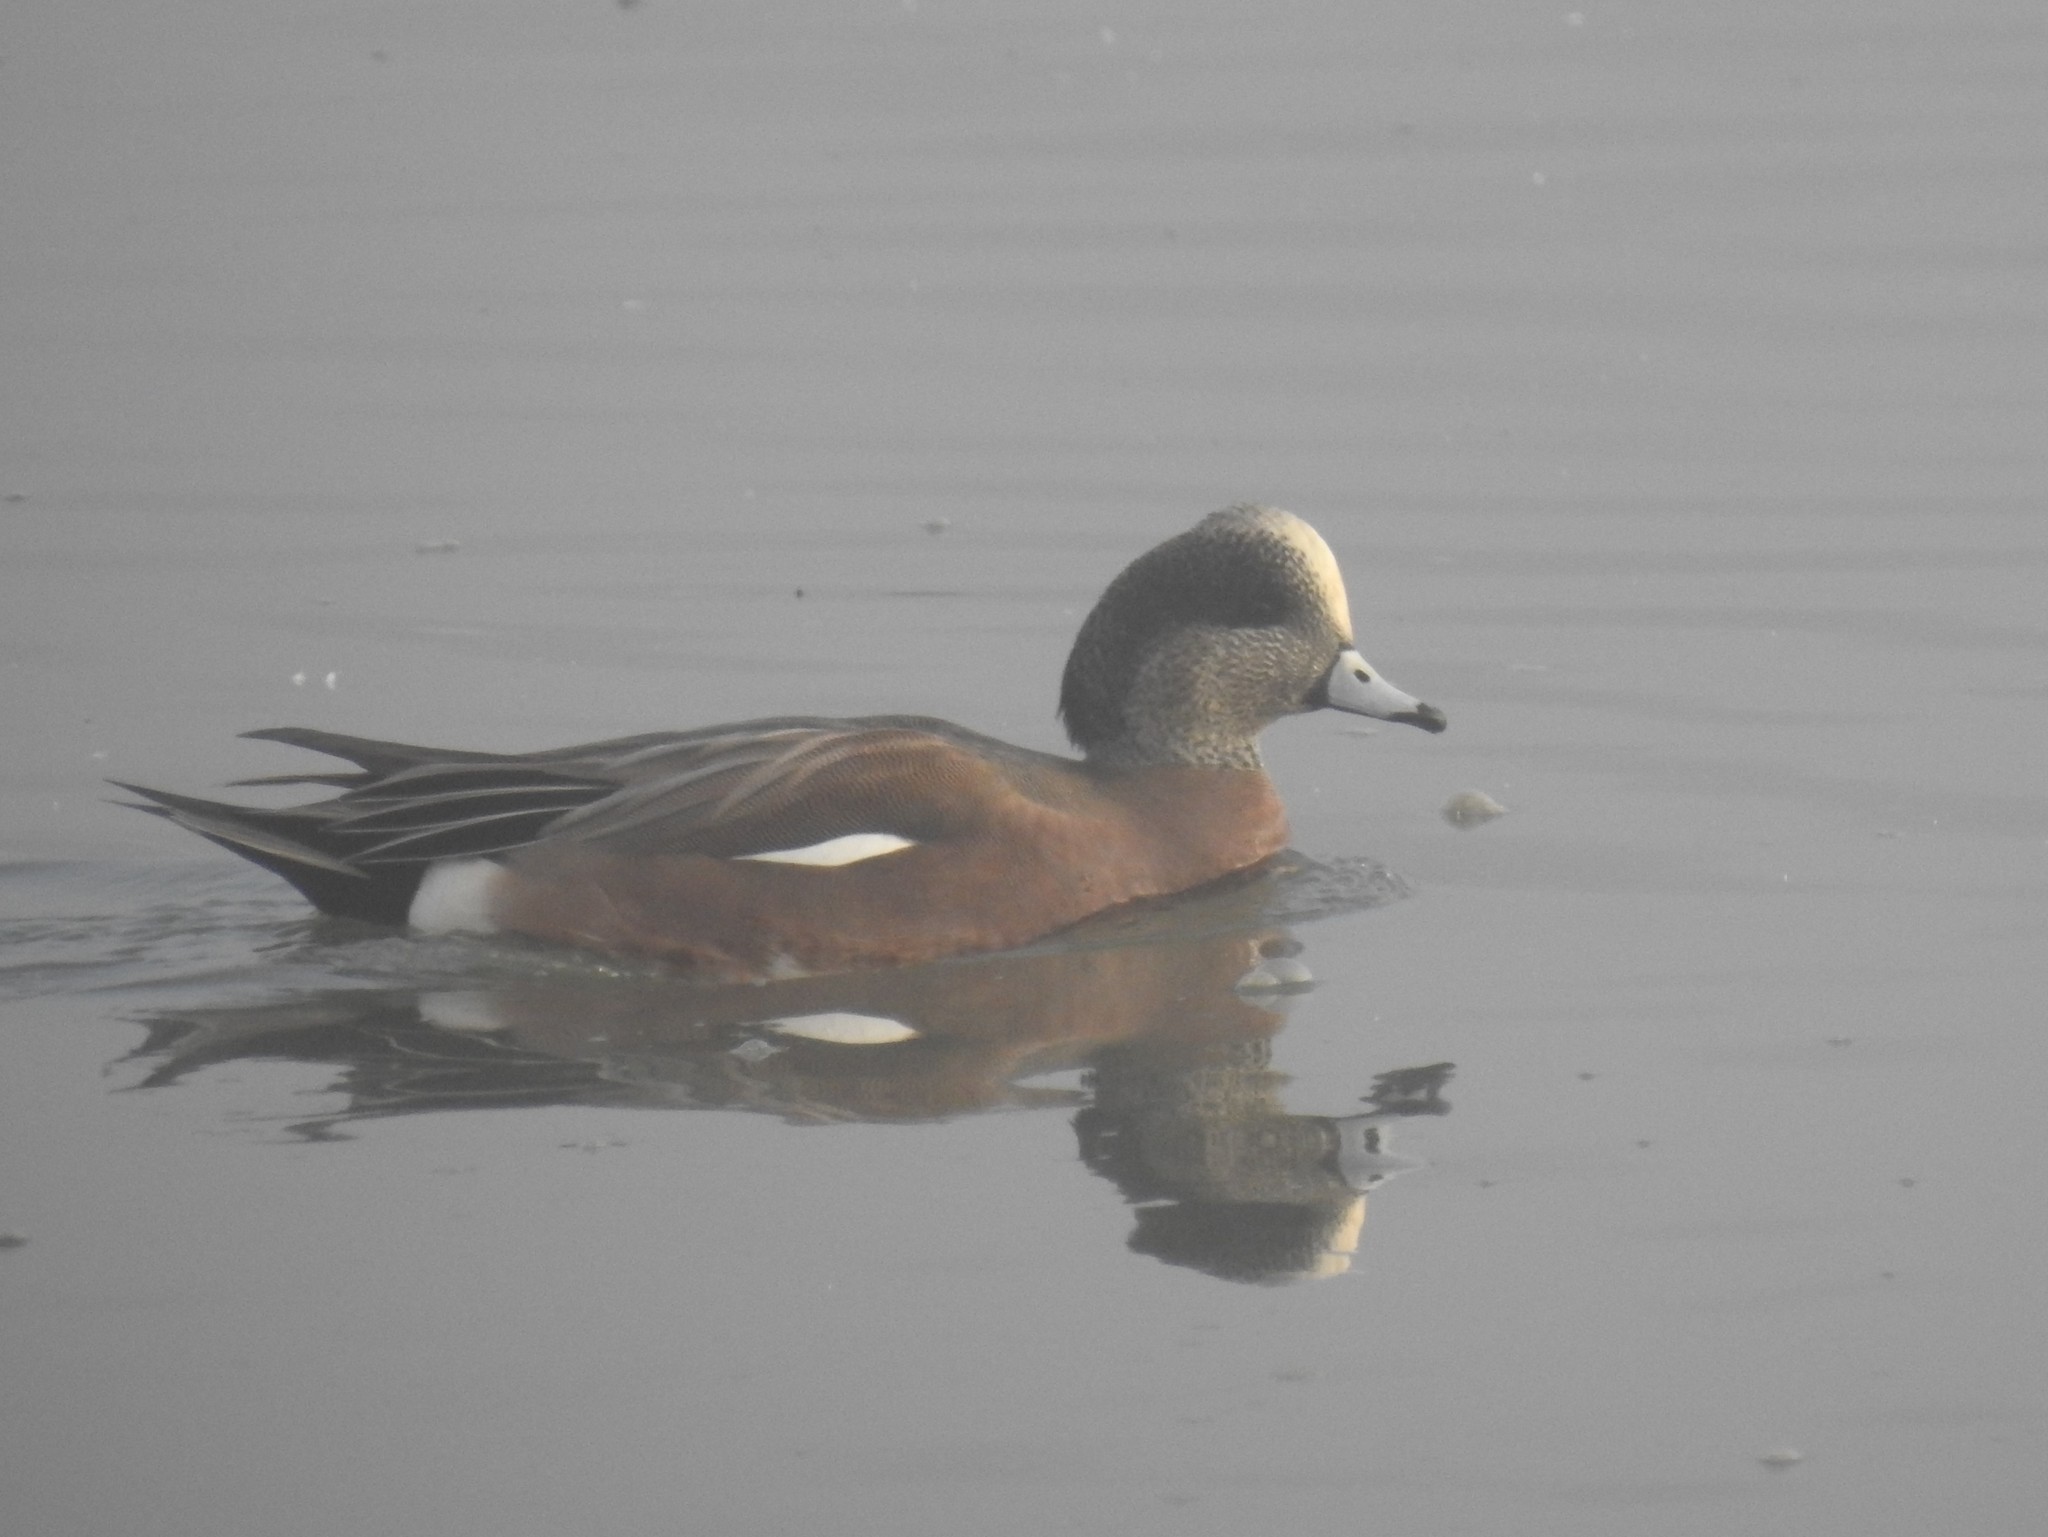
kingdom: Animalia
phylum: Chordata
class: Aves
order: Anseriformes
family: Anatidae
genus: Mareca
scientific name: Mareca americana
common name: American wigeon
